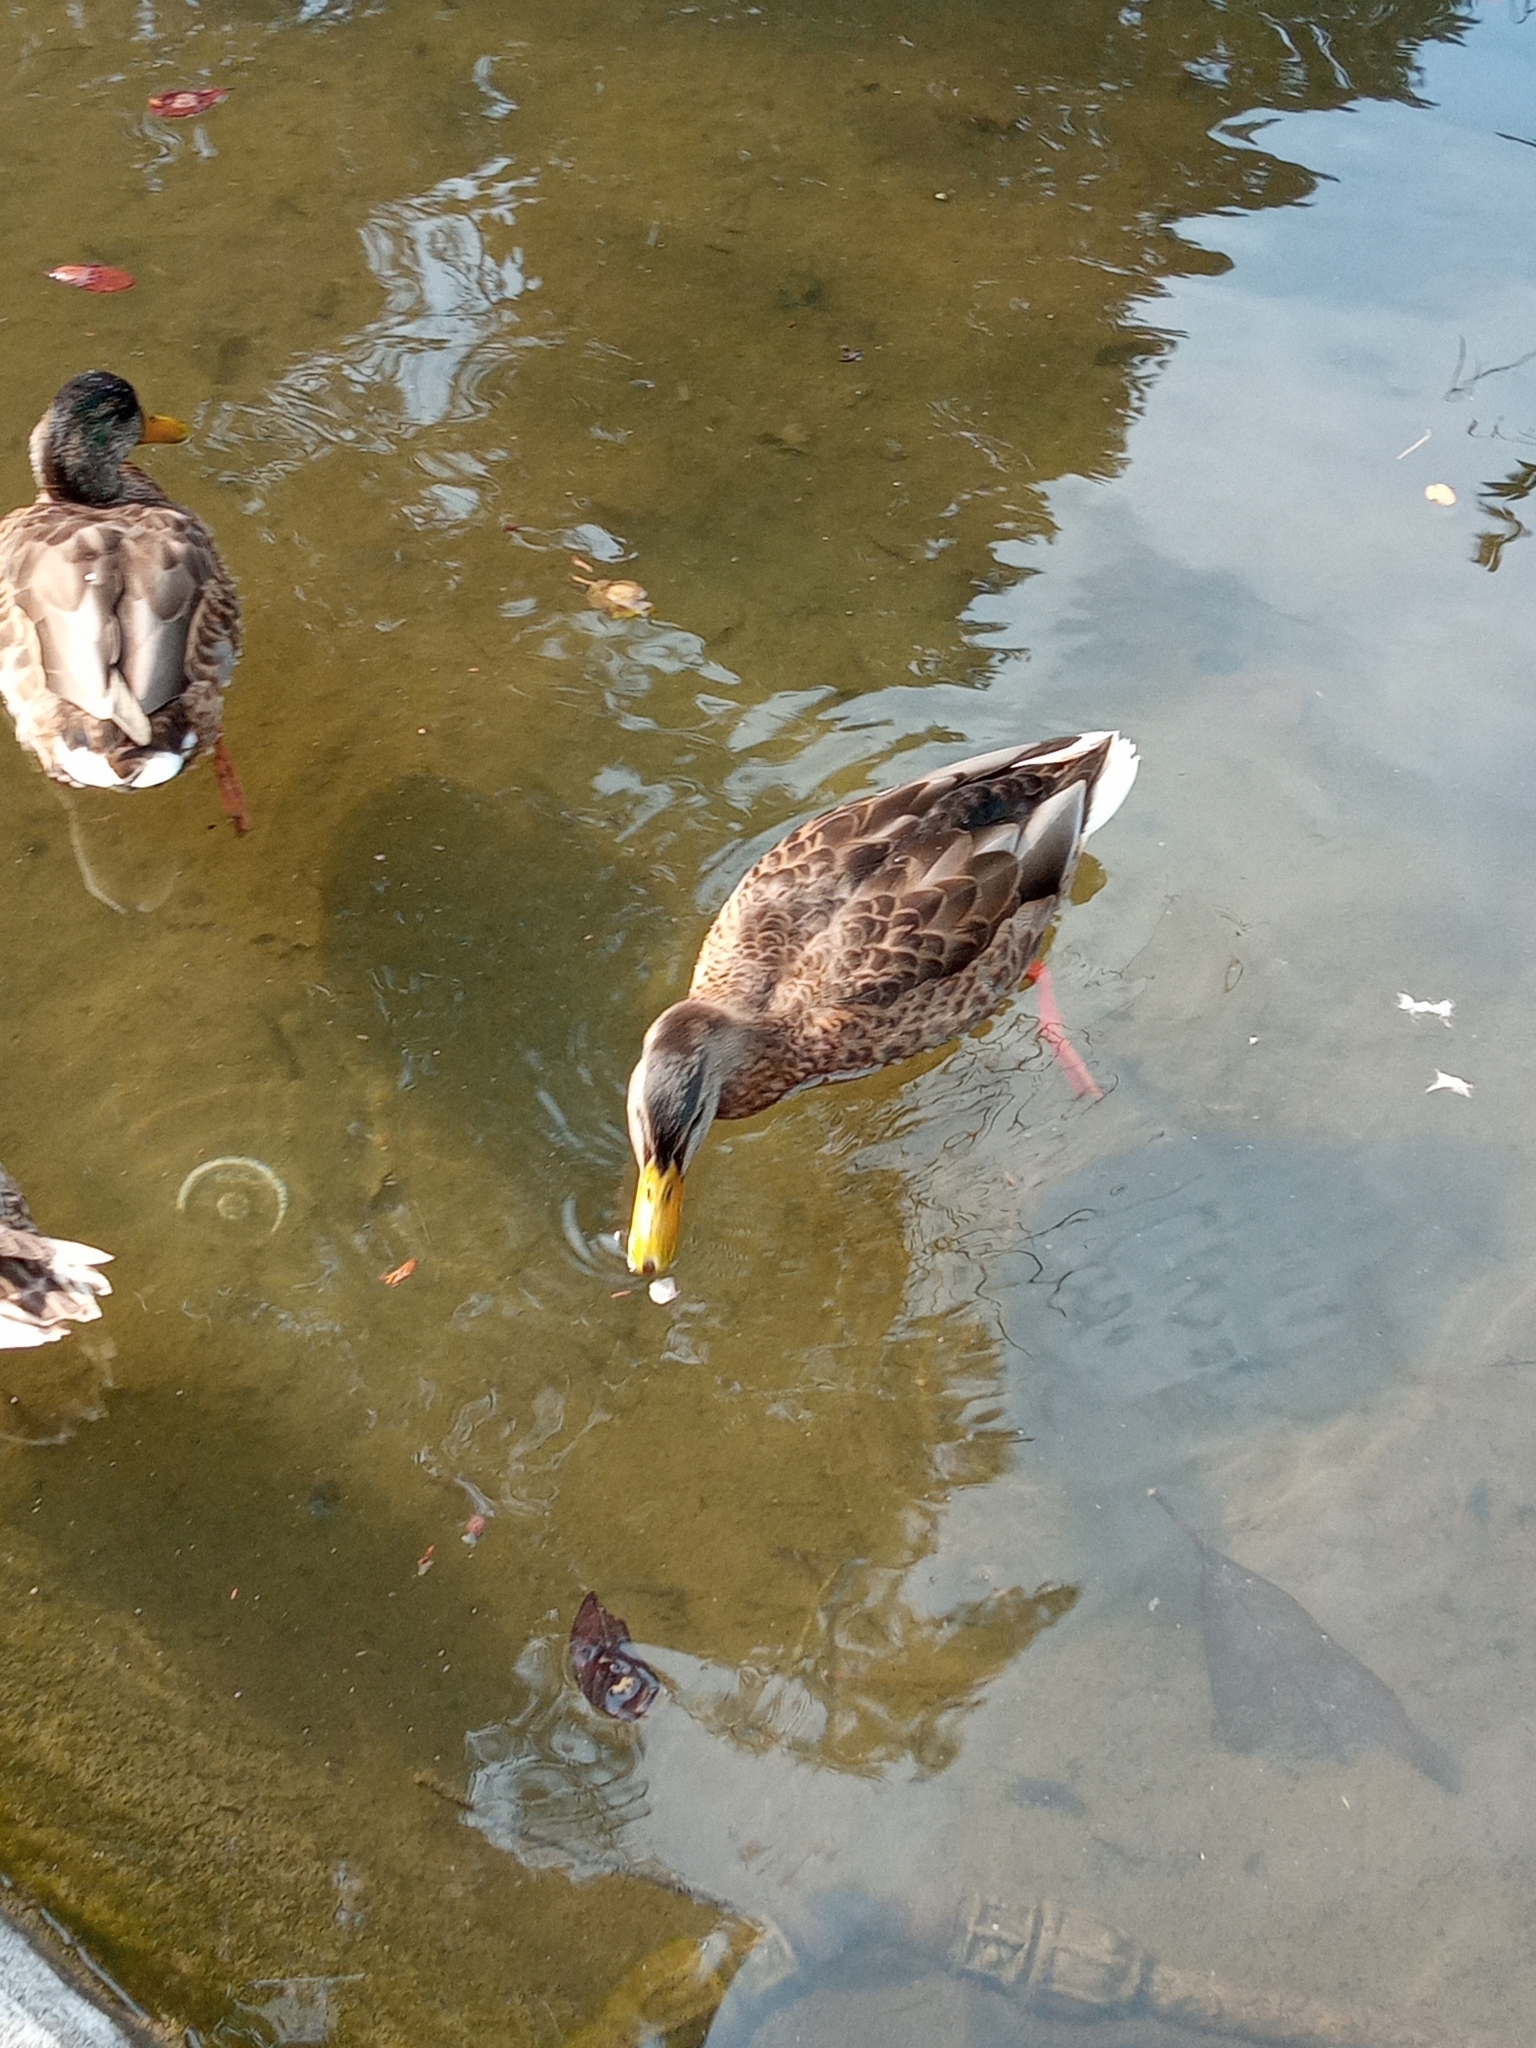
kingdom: Animalia
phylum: Chordata
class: Aves
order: Anseriformes
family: Anatidae
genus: Anas
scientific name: Anas platyrhynchos
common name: Mallard
